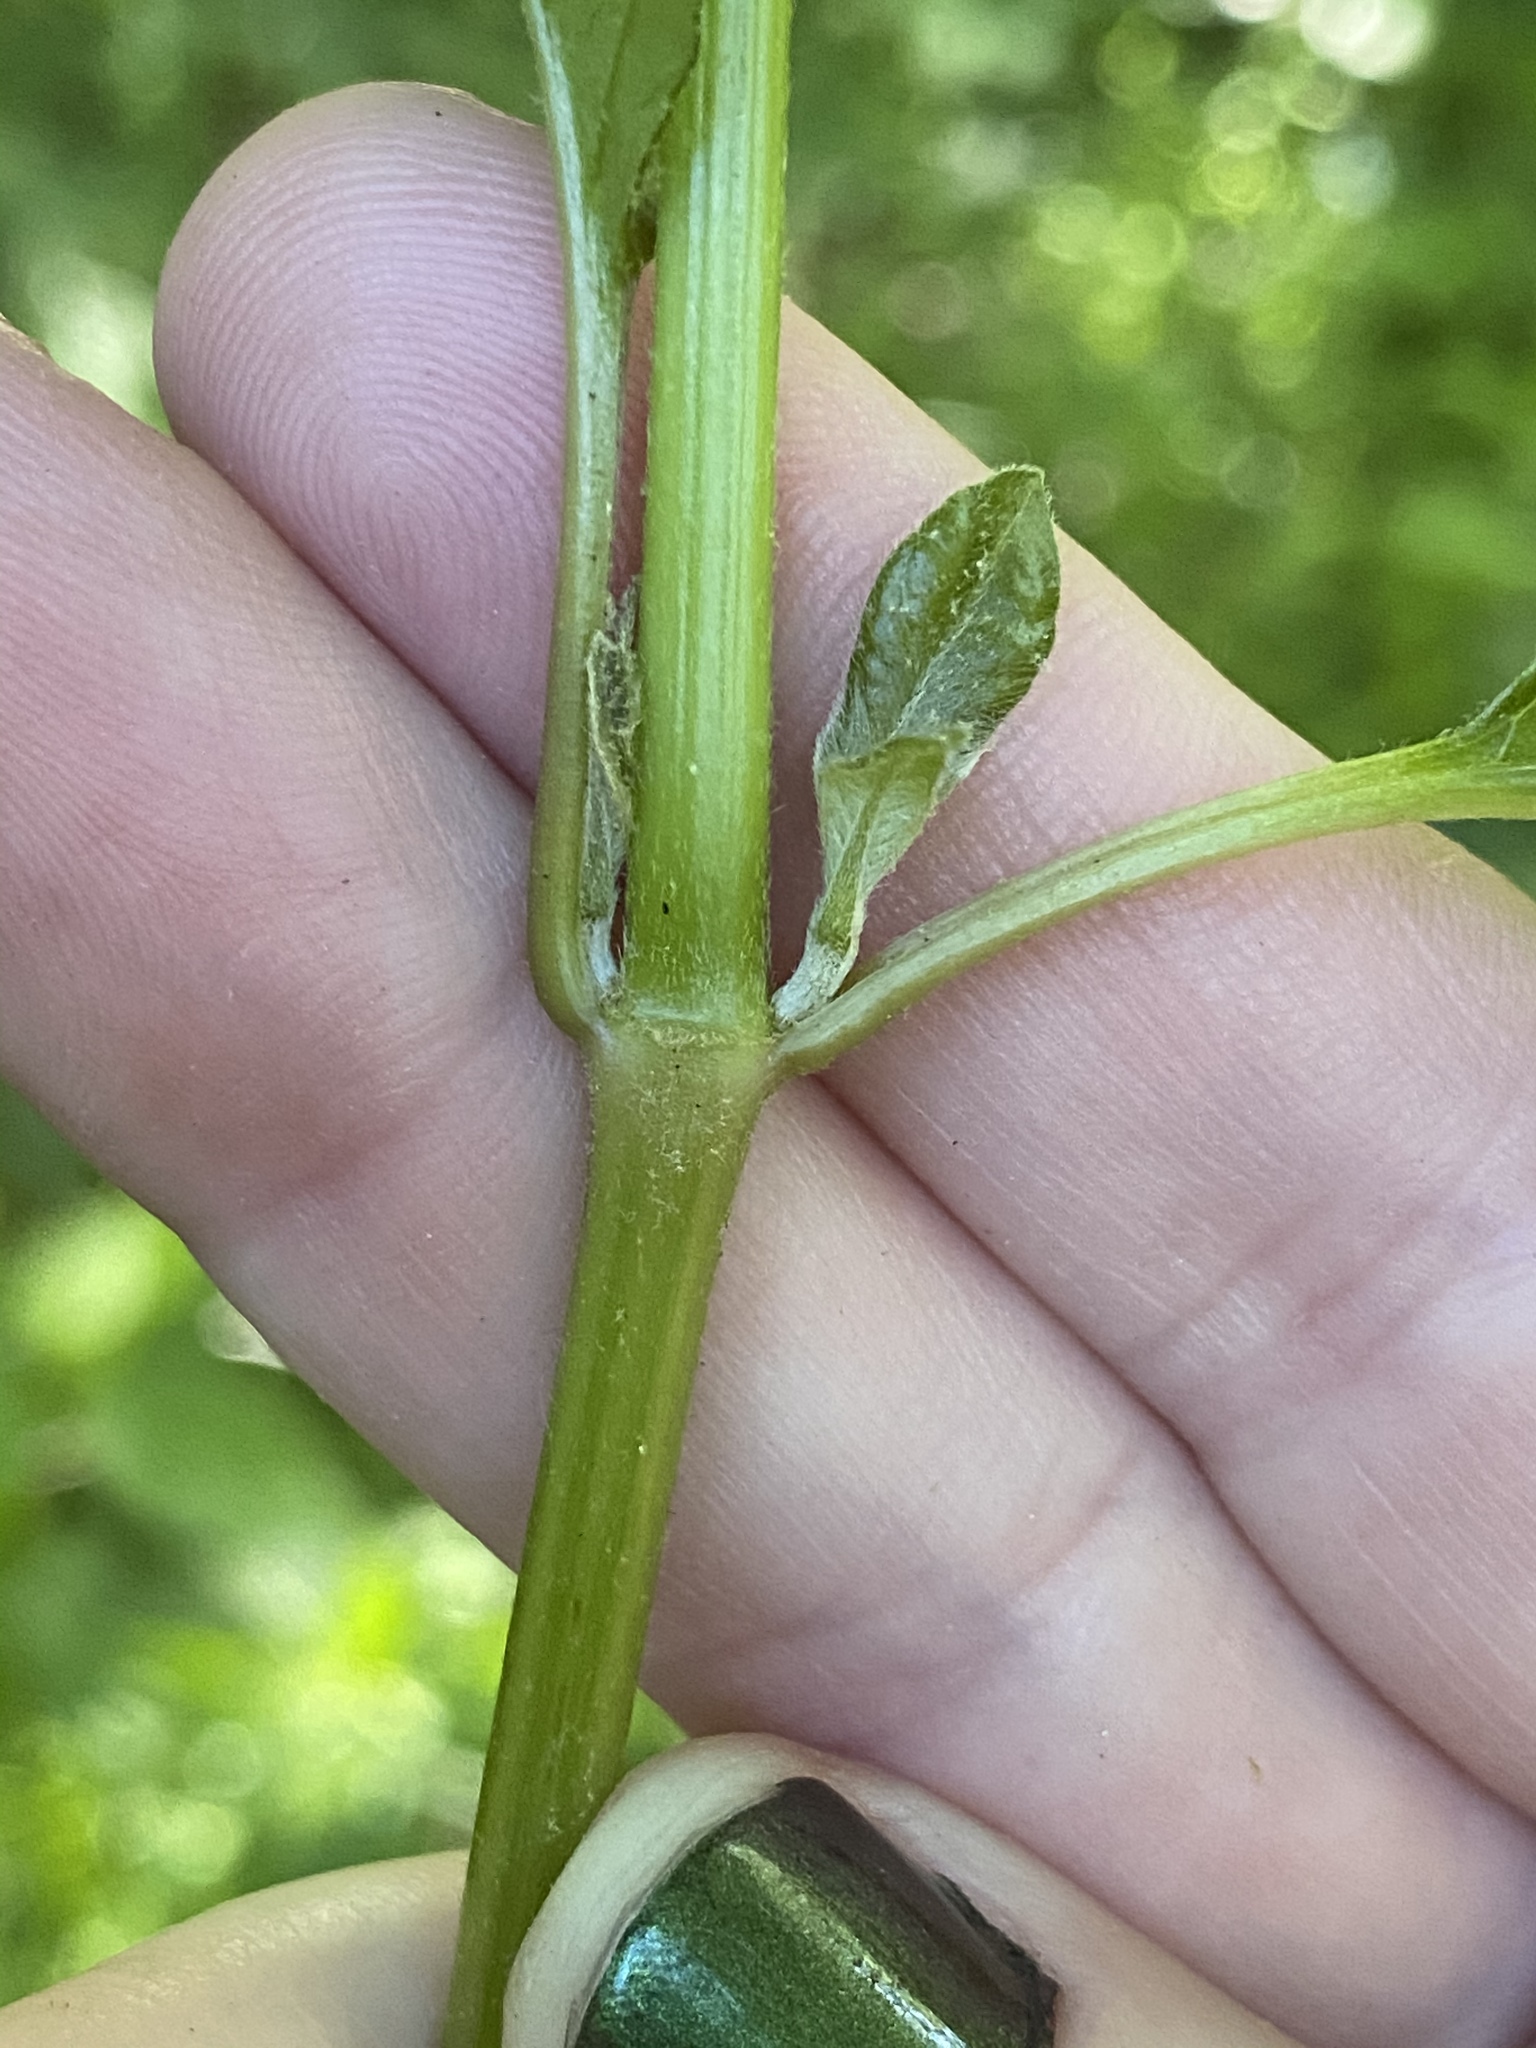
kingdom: Plantae
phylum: Tracheophyta
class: Magnoliopsida
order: Caryophyllales
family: Amaranthaceae
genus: Achyranthes
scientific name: Achyranthes bidentata
